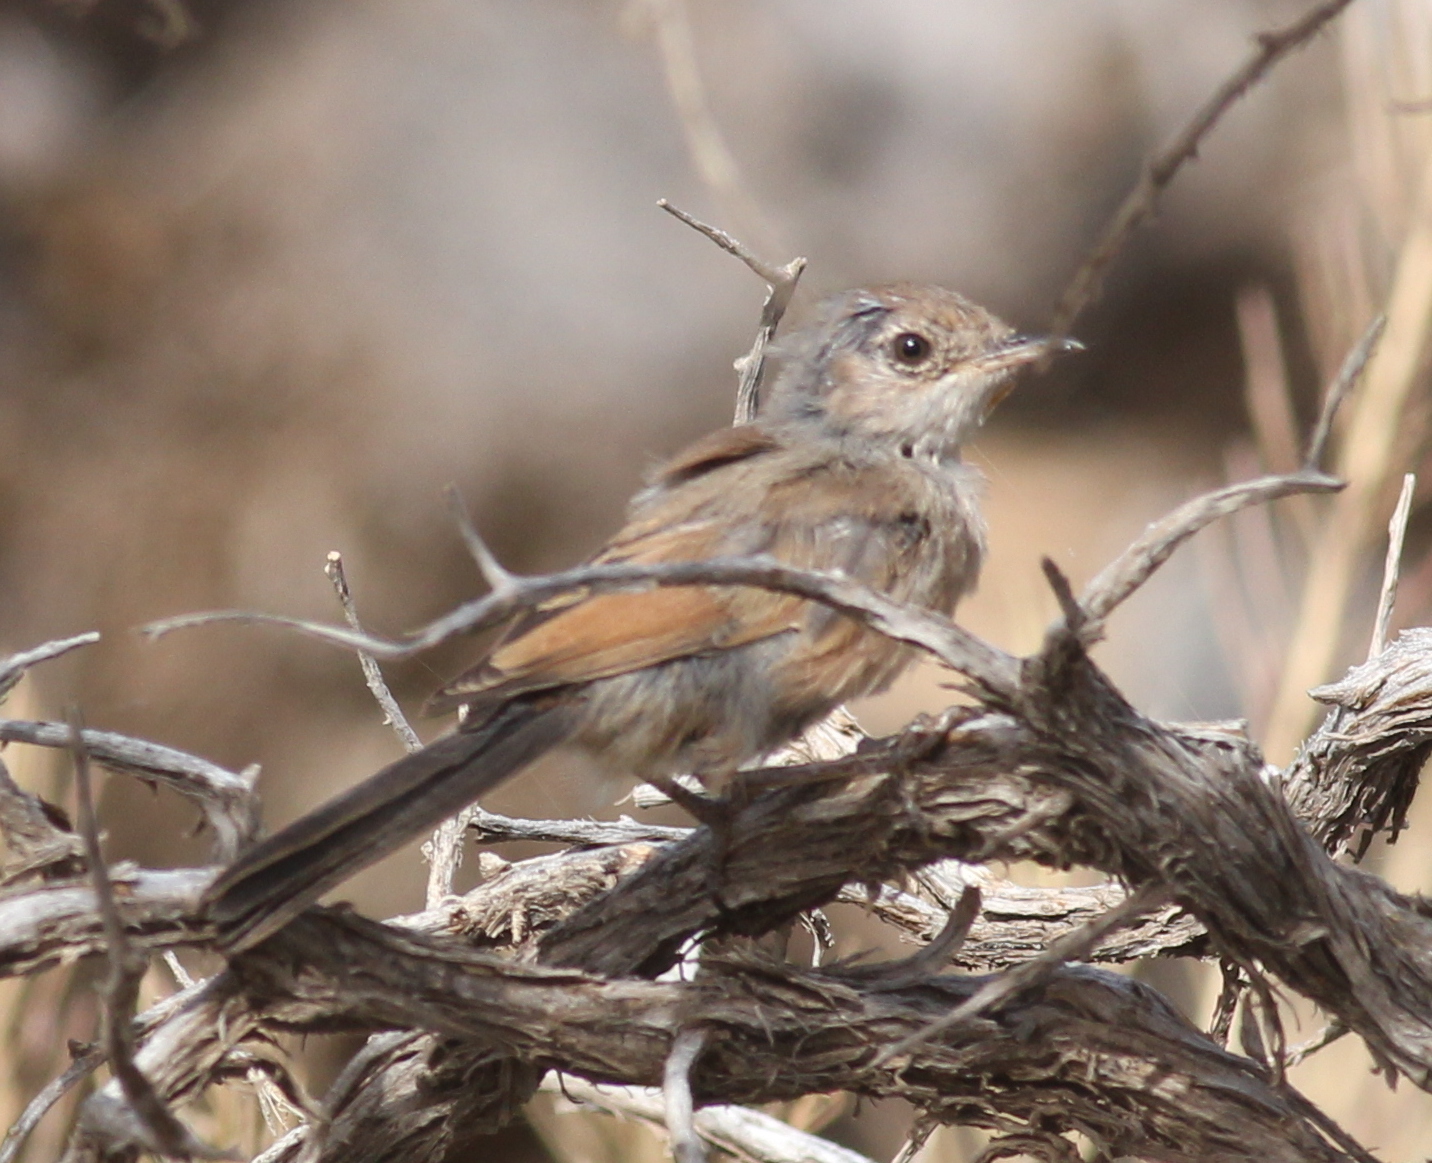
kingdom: Animalia
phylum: Chordata
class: Aves
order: Passeriformes
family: Sylviidae
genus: Sylvia
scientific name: Sylvia conspicillata
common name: Spectacled warbler
